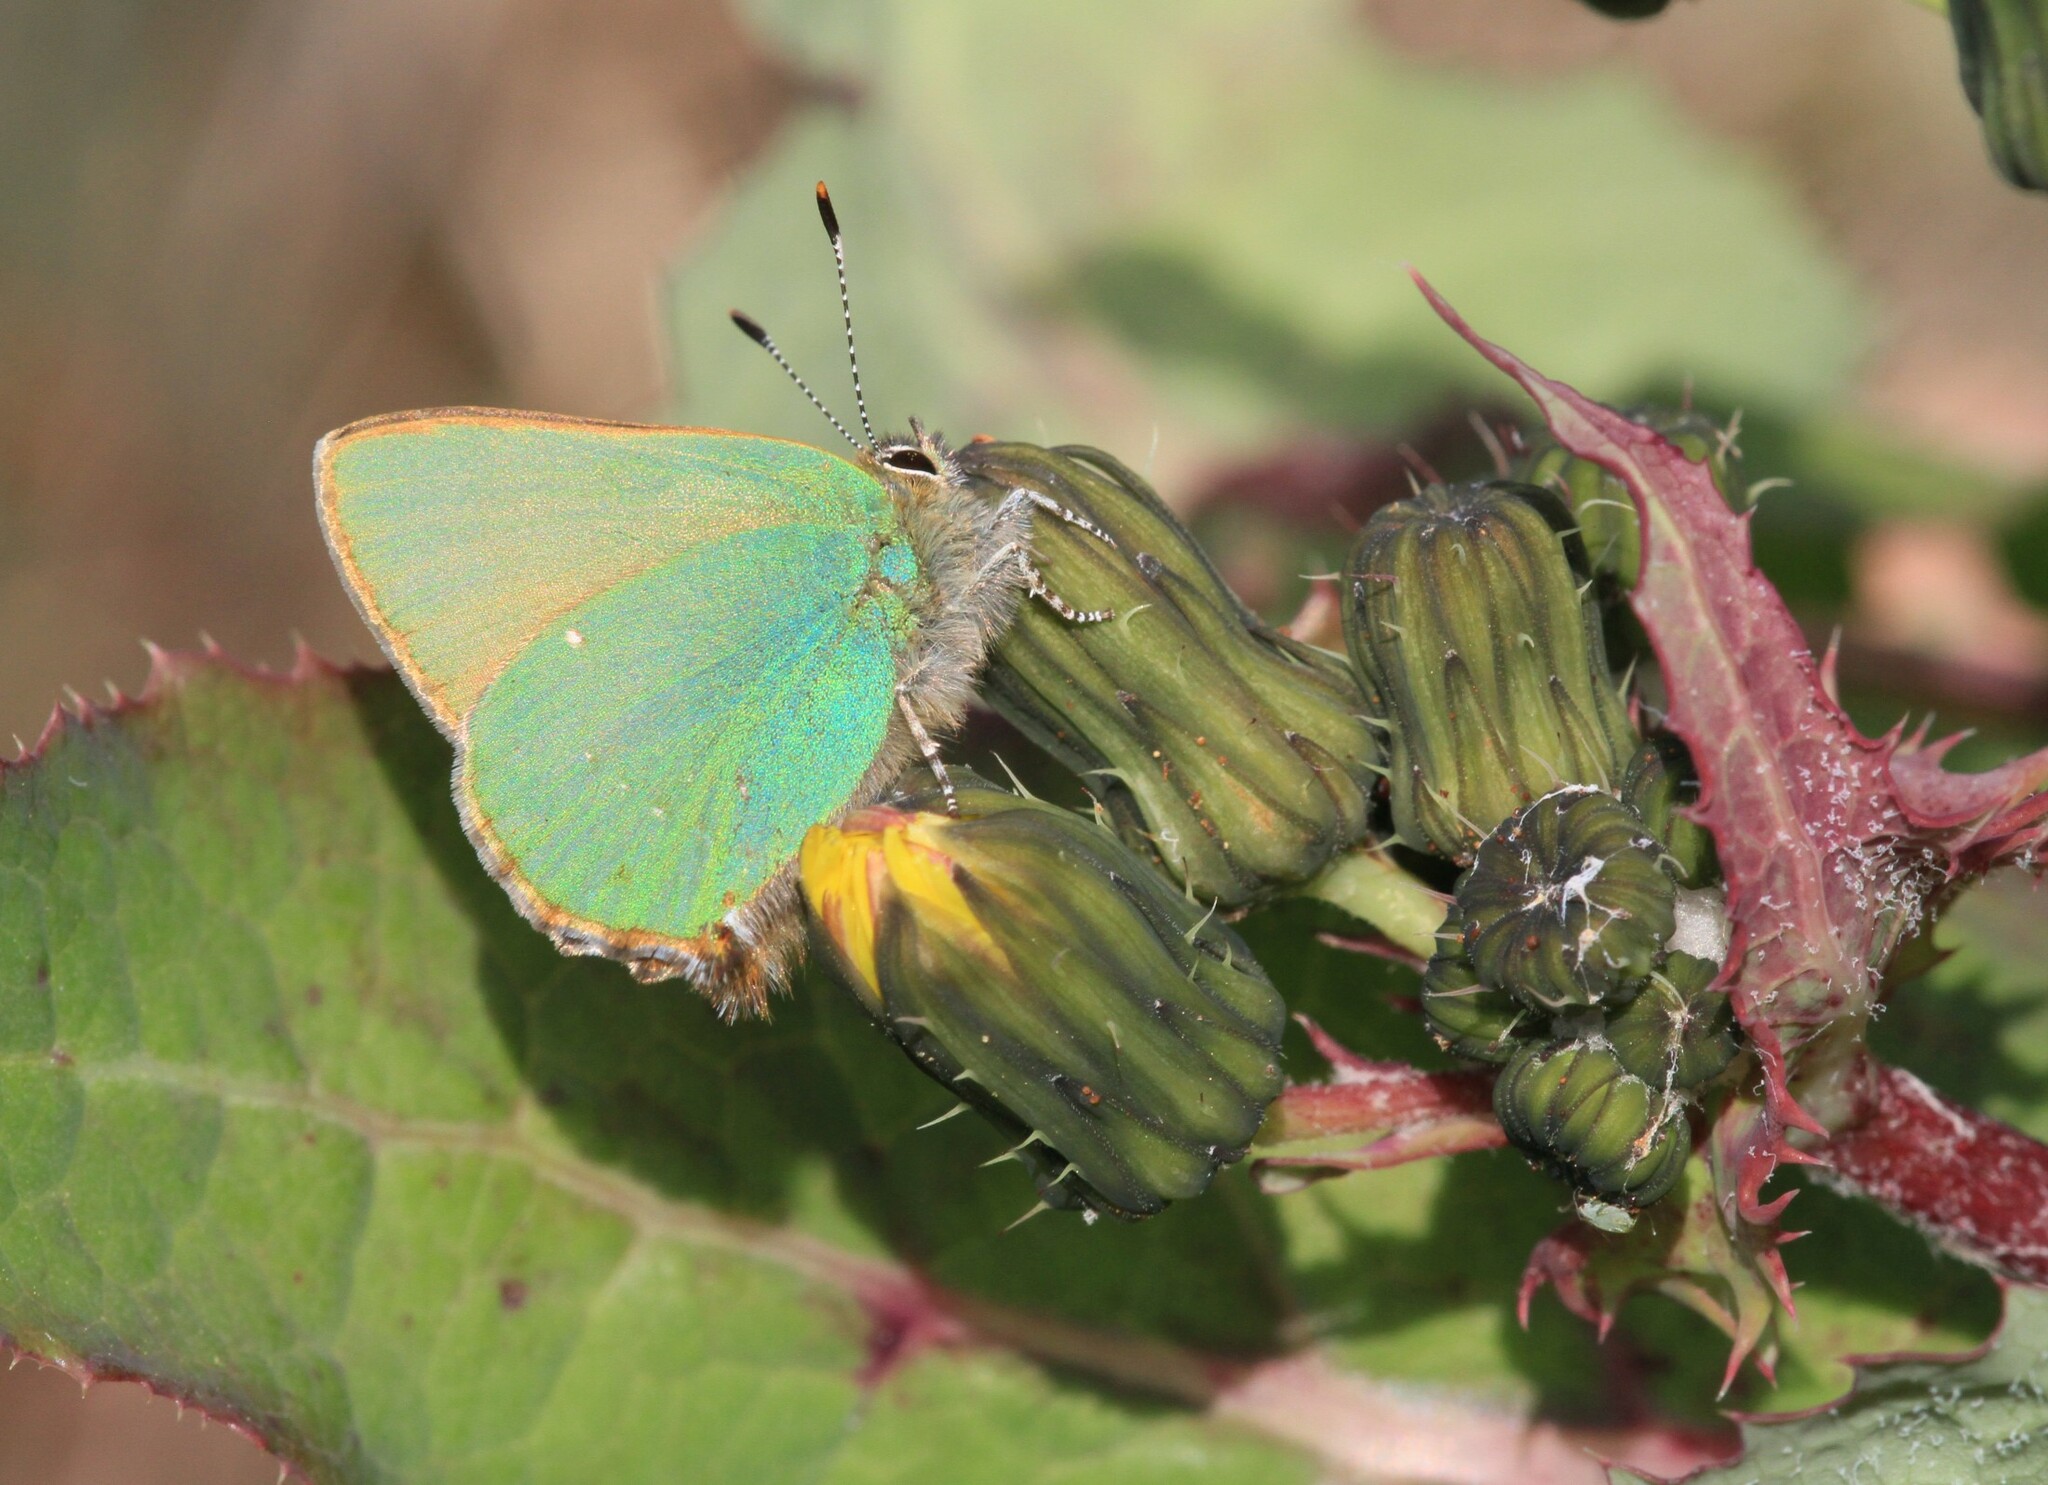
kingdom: Animalia
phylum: Arthropoda
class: Insecta
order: Lepidoptera
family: Lycaenidae
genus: Callophrys
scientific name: Callophrys rubi
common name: Green hairstreak
